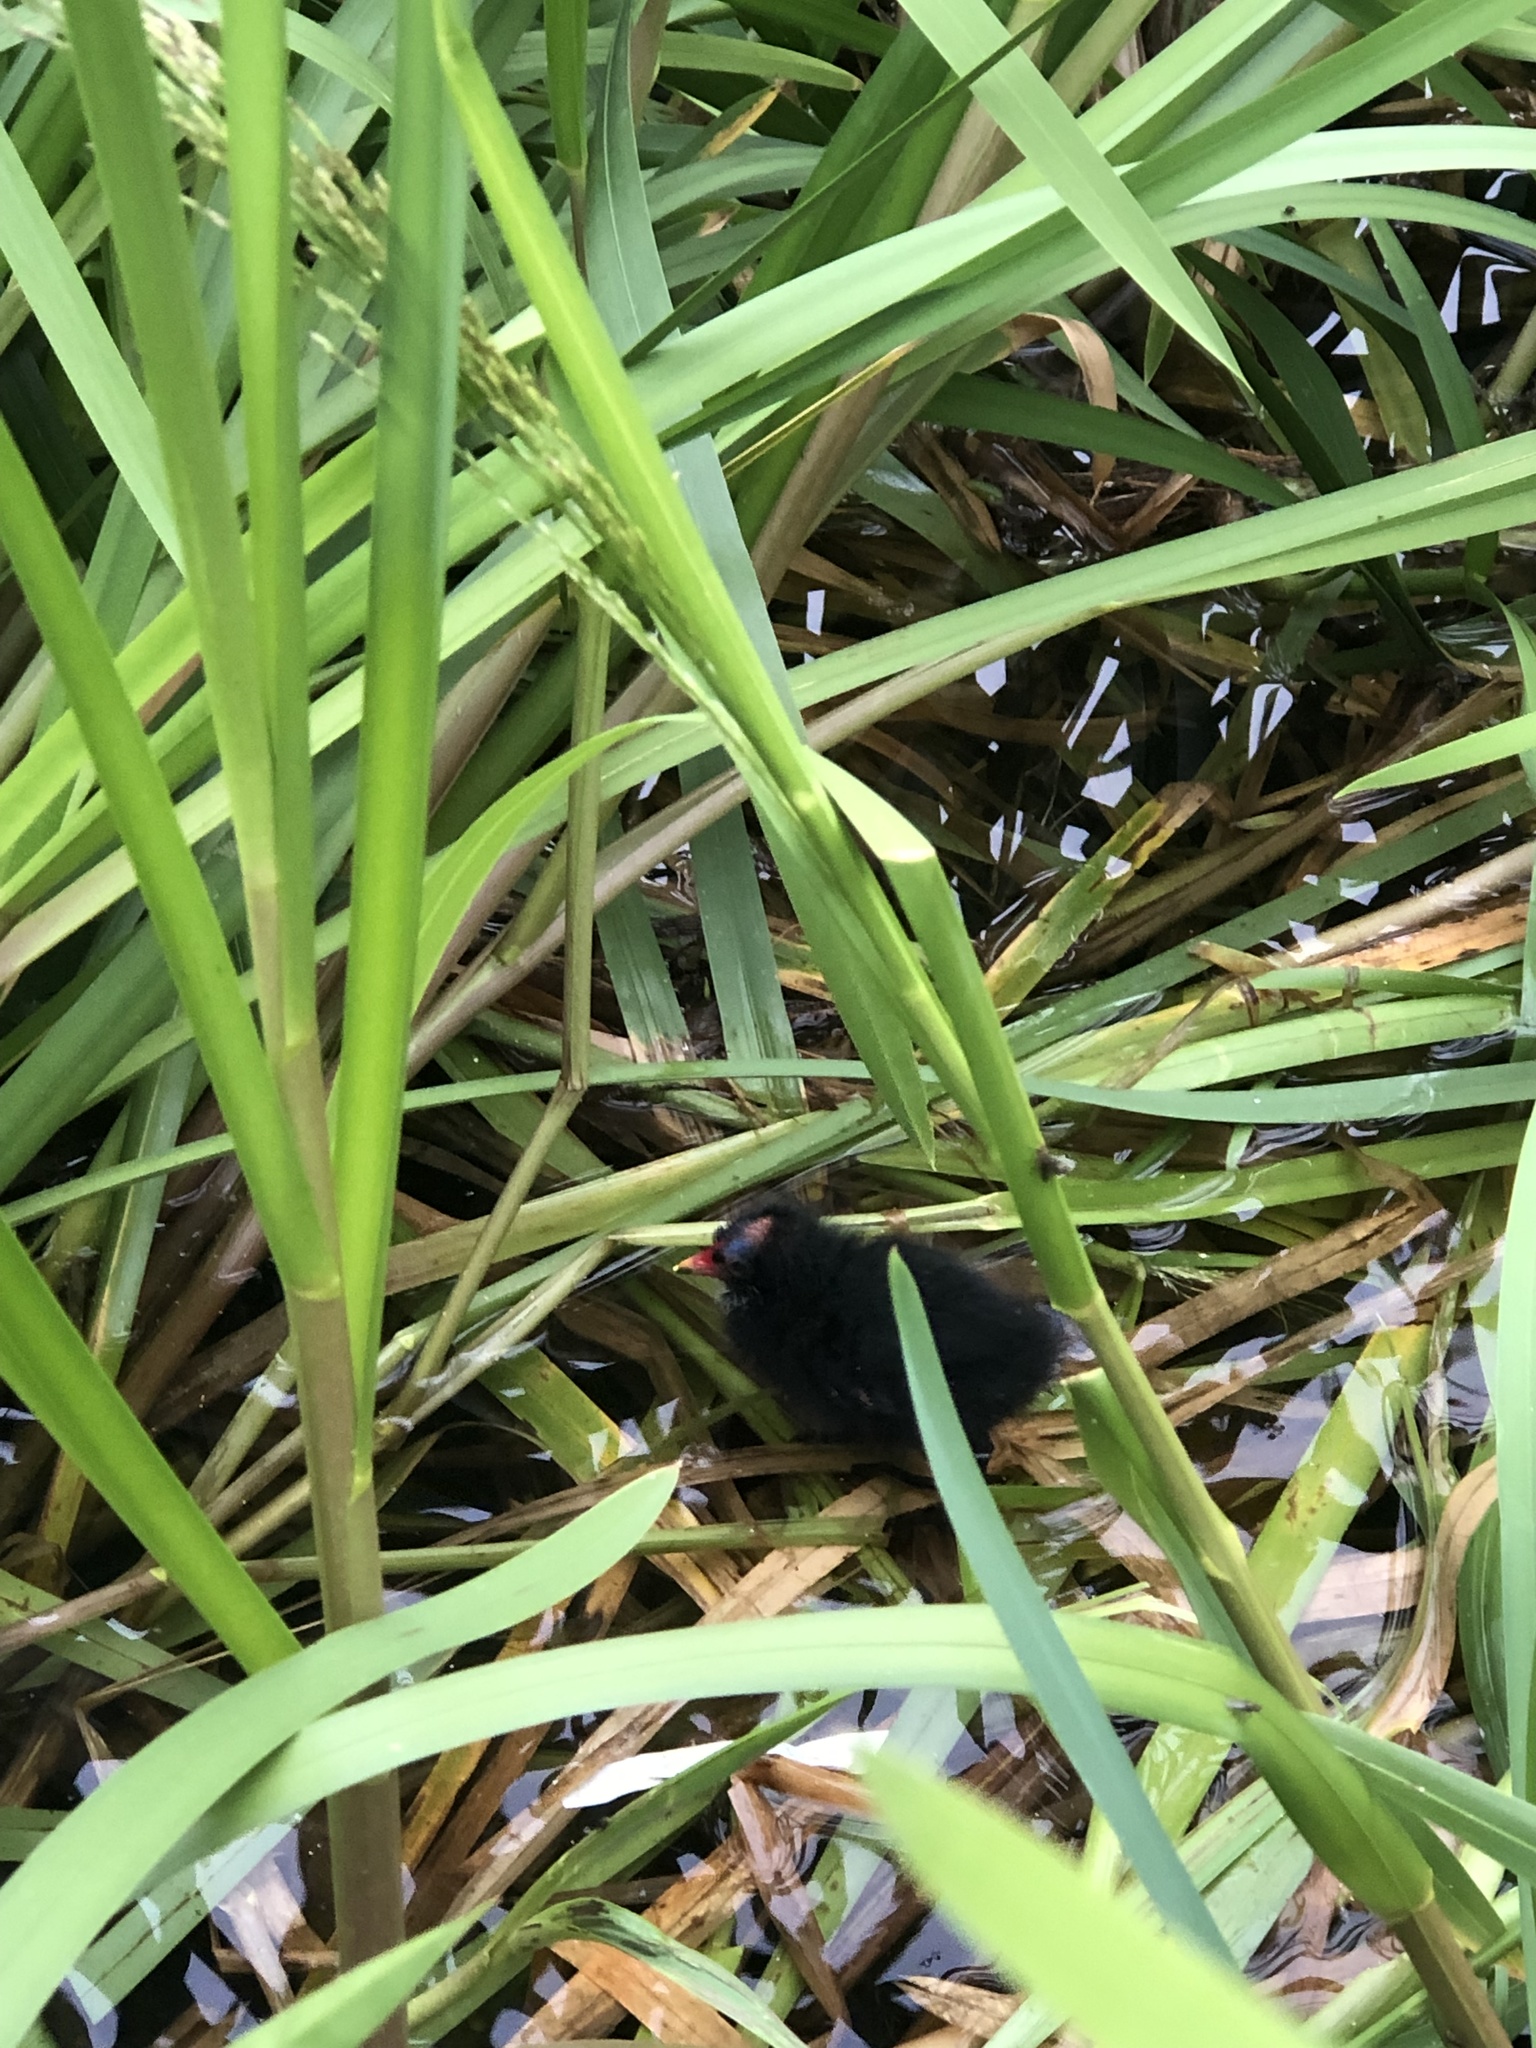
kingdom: Animalia
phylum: Chordata
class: Aves
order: Gruiformes
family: Rallidae
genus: Gallinula
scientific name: Gallinula chloropus
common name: Common moorhen
